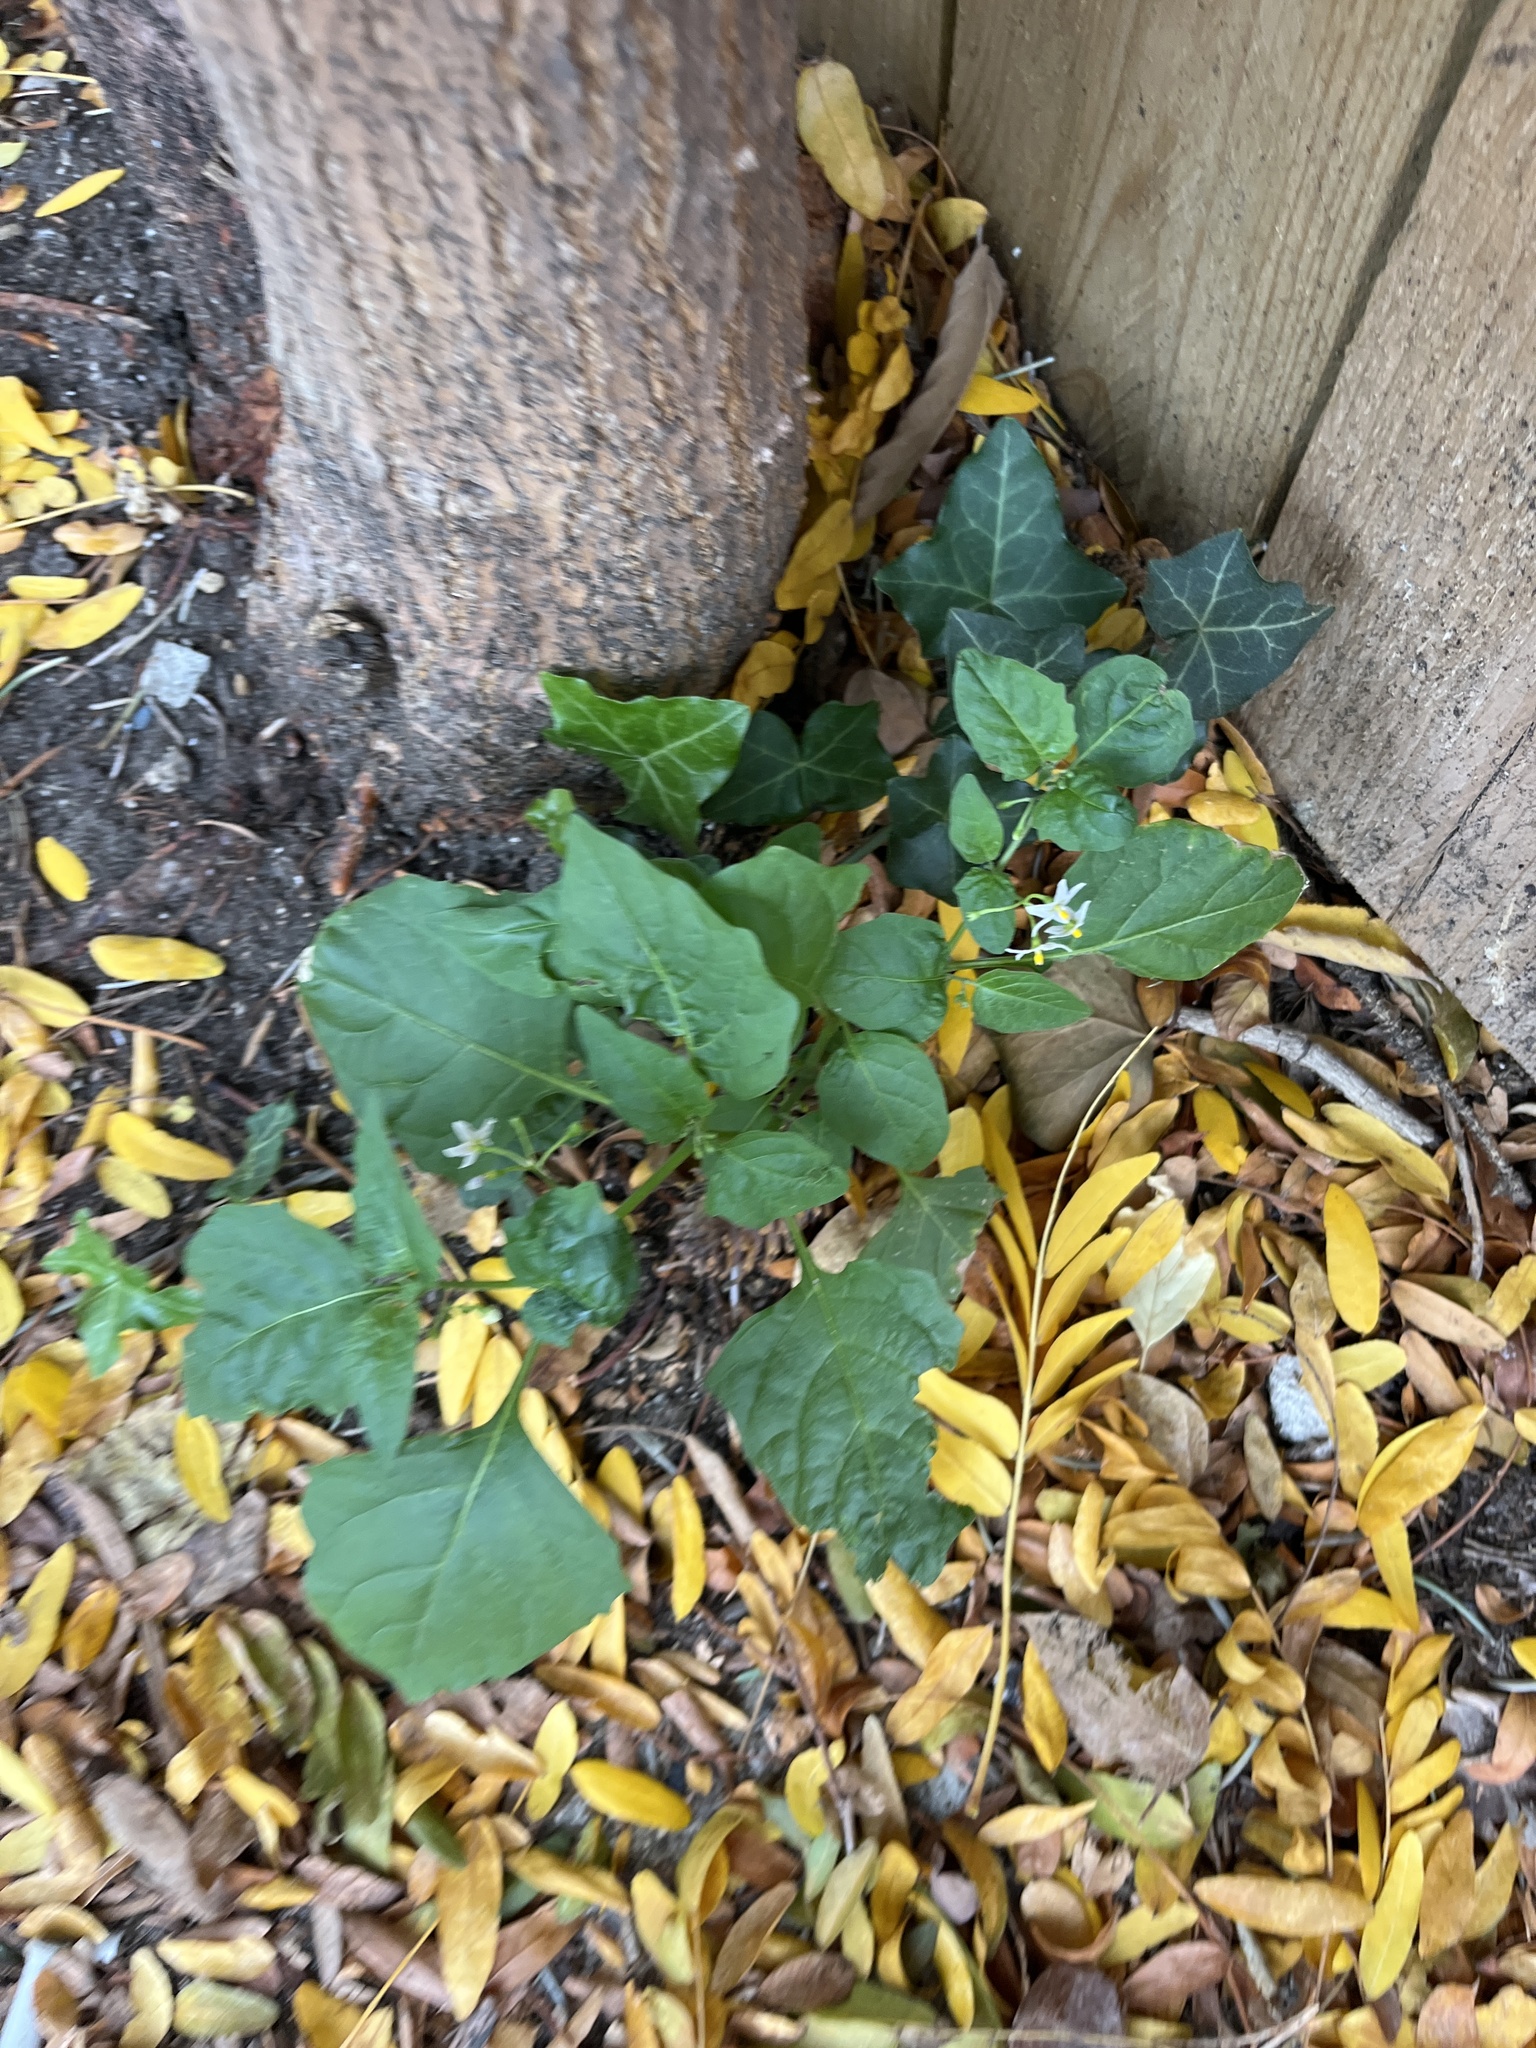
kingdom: Plantae
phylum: Tracheophyta
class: Magnoliopsida
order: Solanales
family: Solanaceae
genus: Solanum
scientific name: Solanum emulans
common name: Eastern black nightshade
